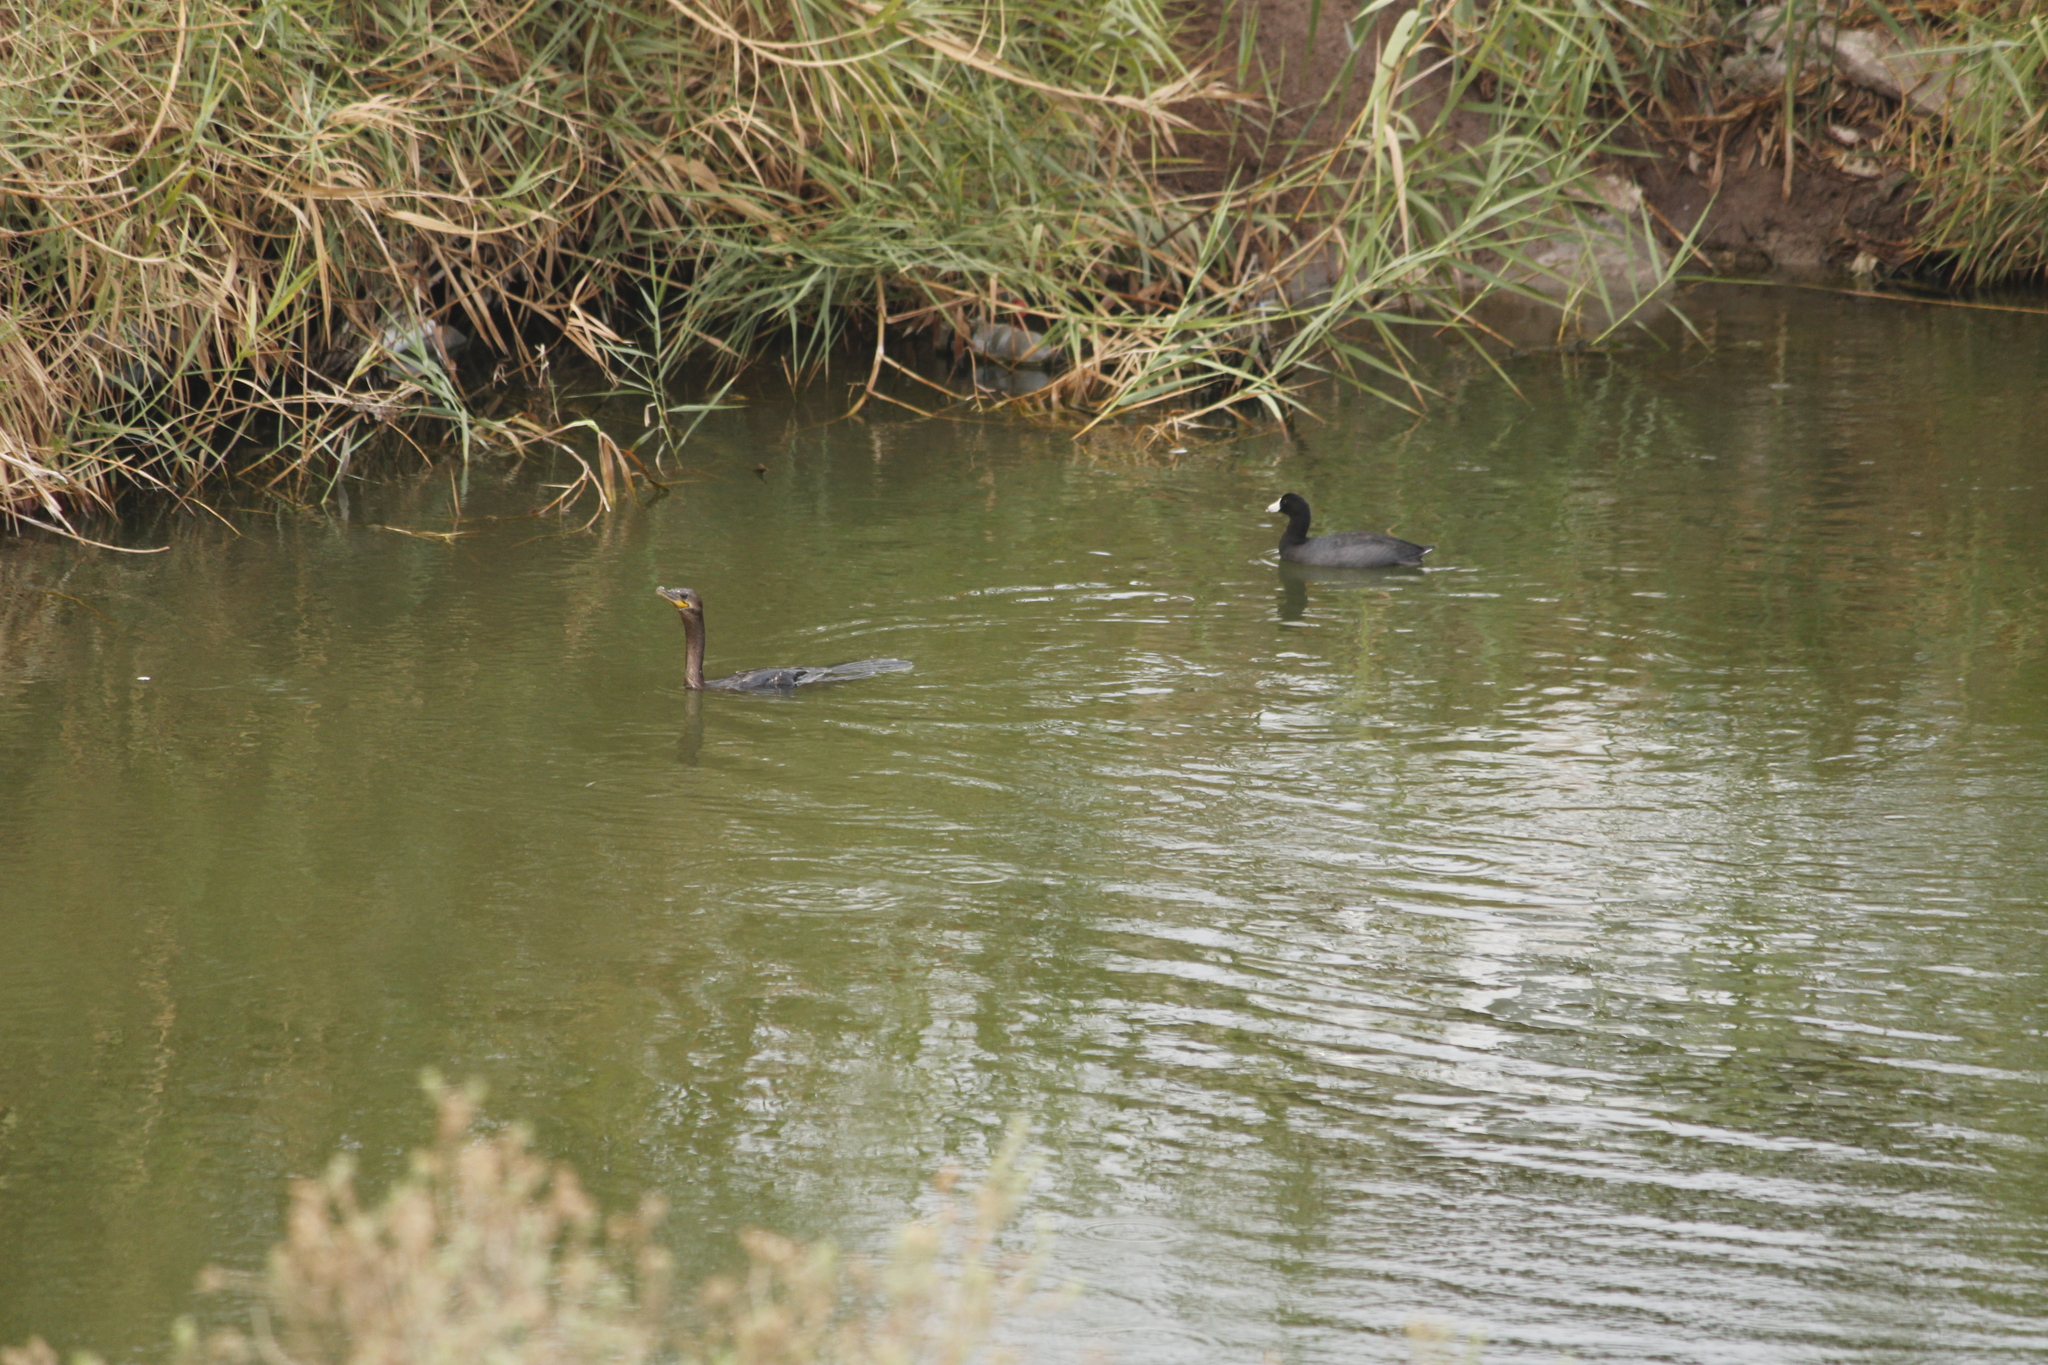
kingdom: Animalia
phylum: Chordata
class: Aves
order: Gruiformes
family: Rallidae
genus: Fulica
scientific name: Fulica americana
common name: American coot
